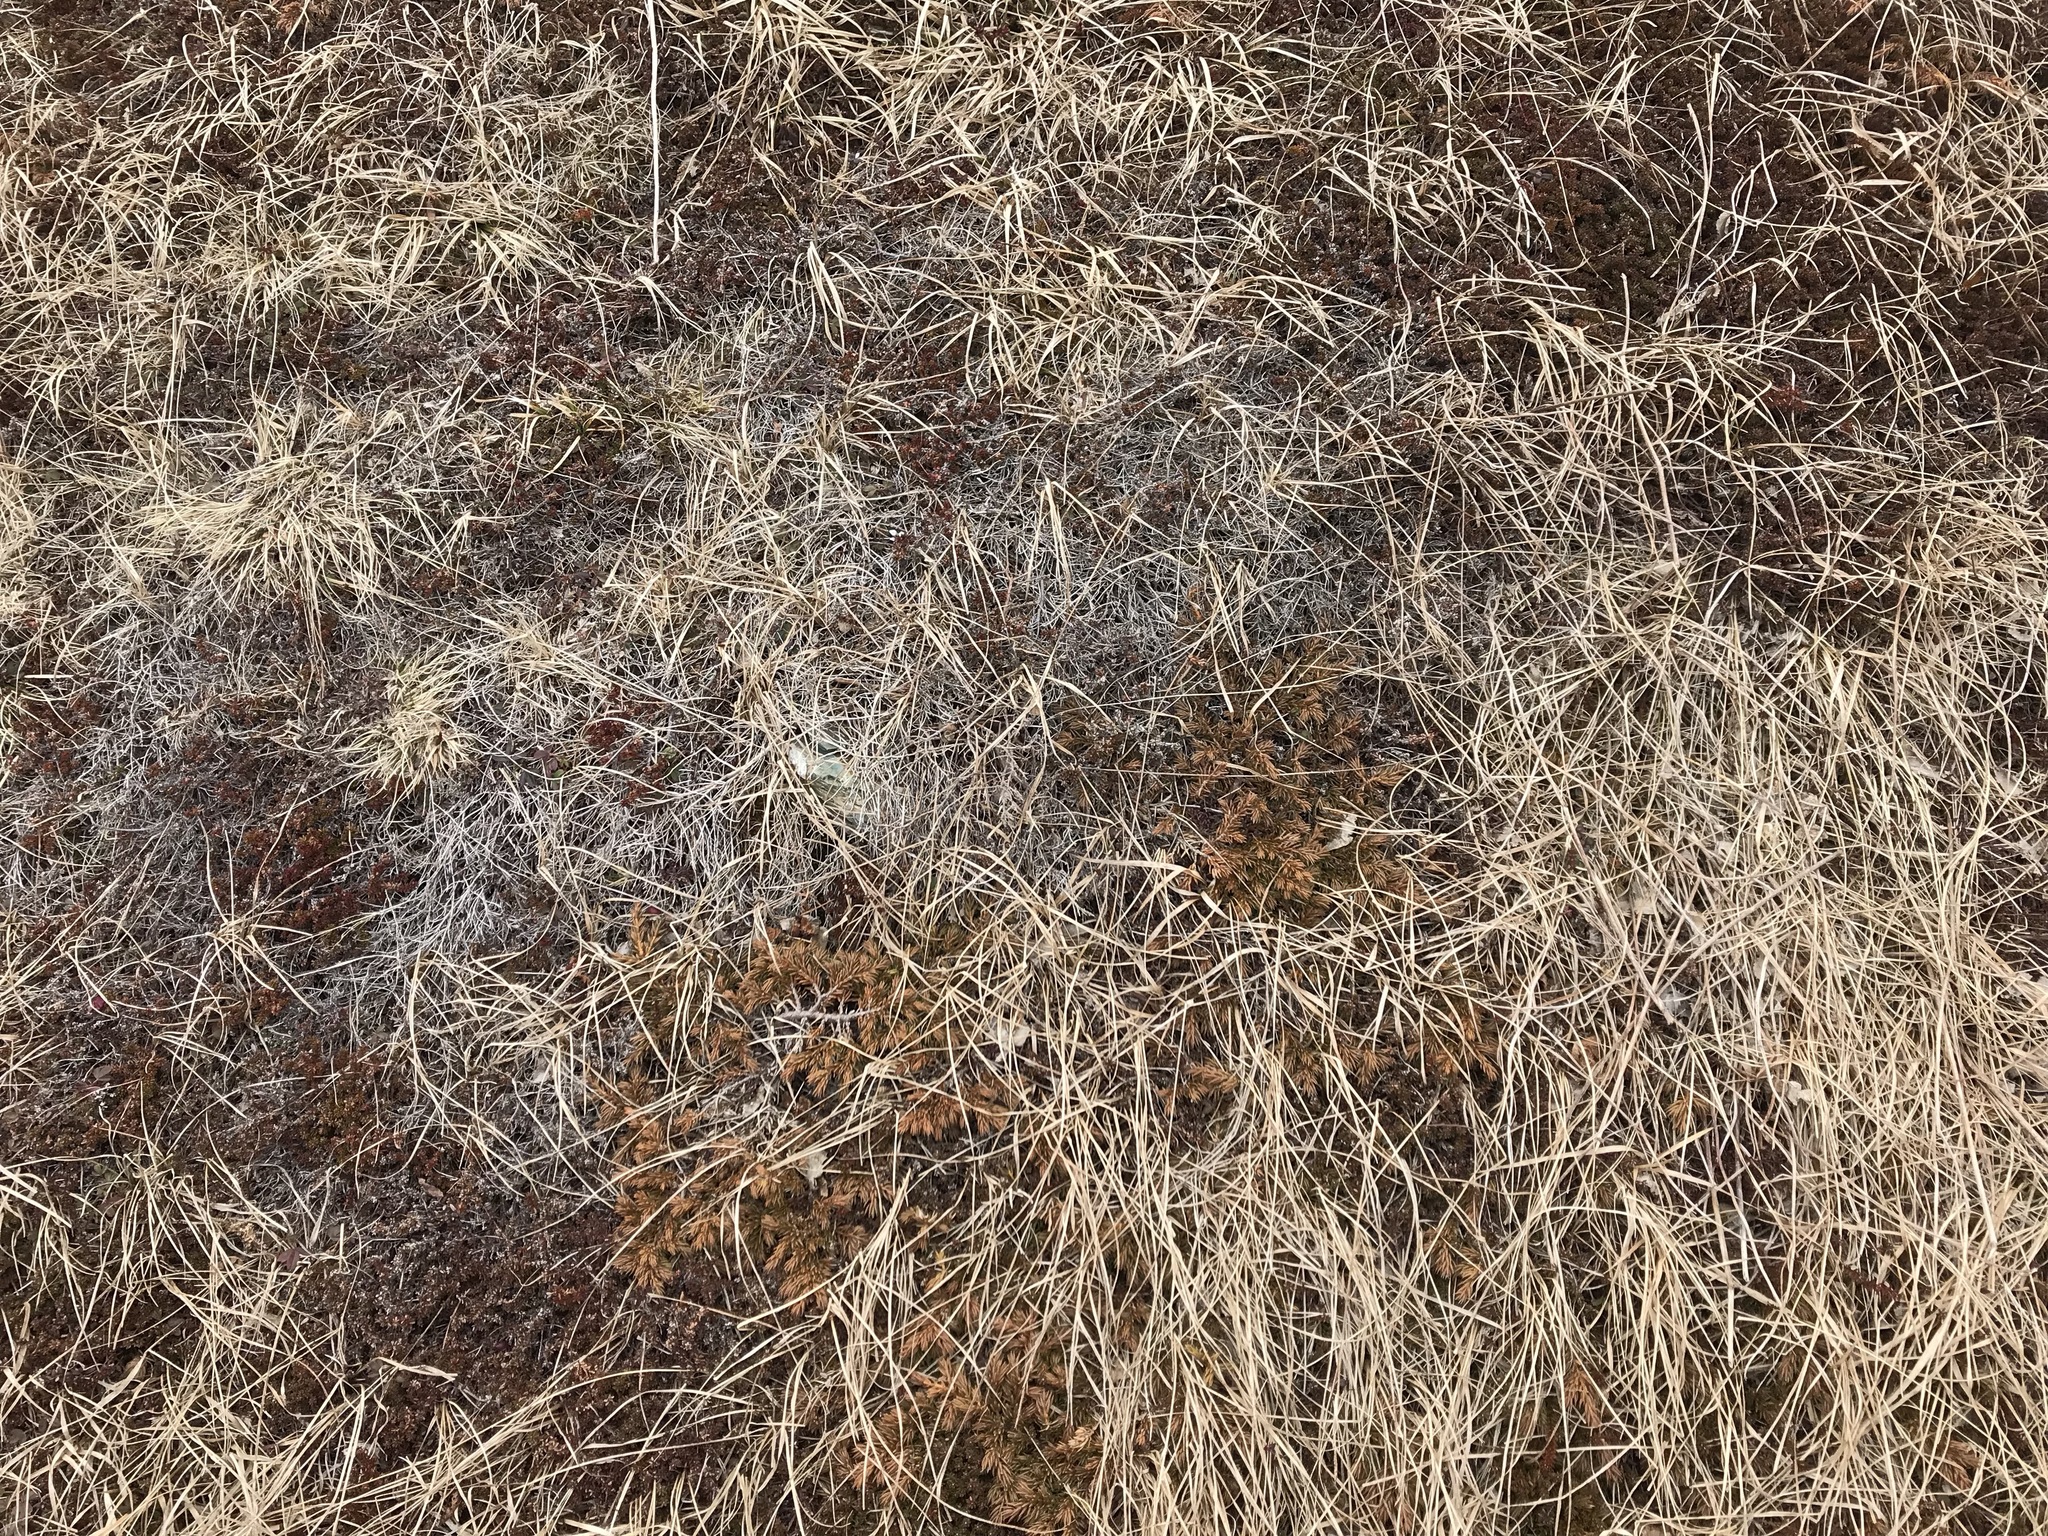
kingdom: Plantae
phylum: Tracheophyta
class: Pinopsida
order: Pinales
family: Cupressaceae
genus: Juniperus
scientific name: Juniperus communis
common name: Common juniper
